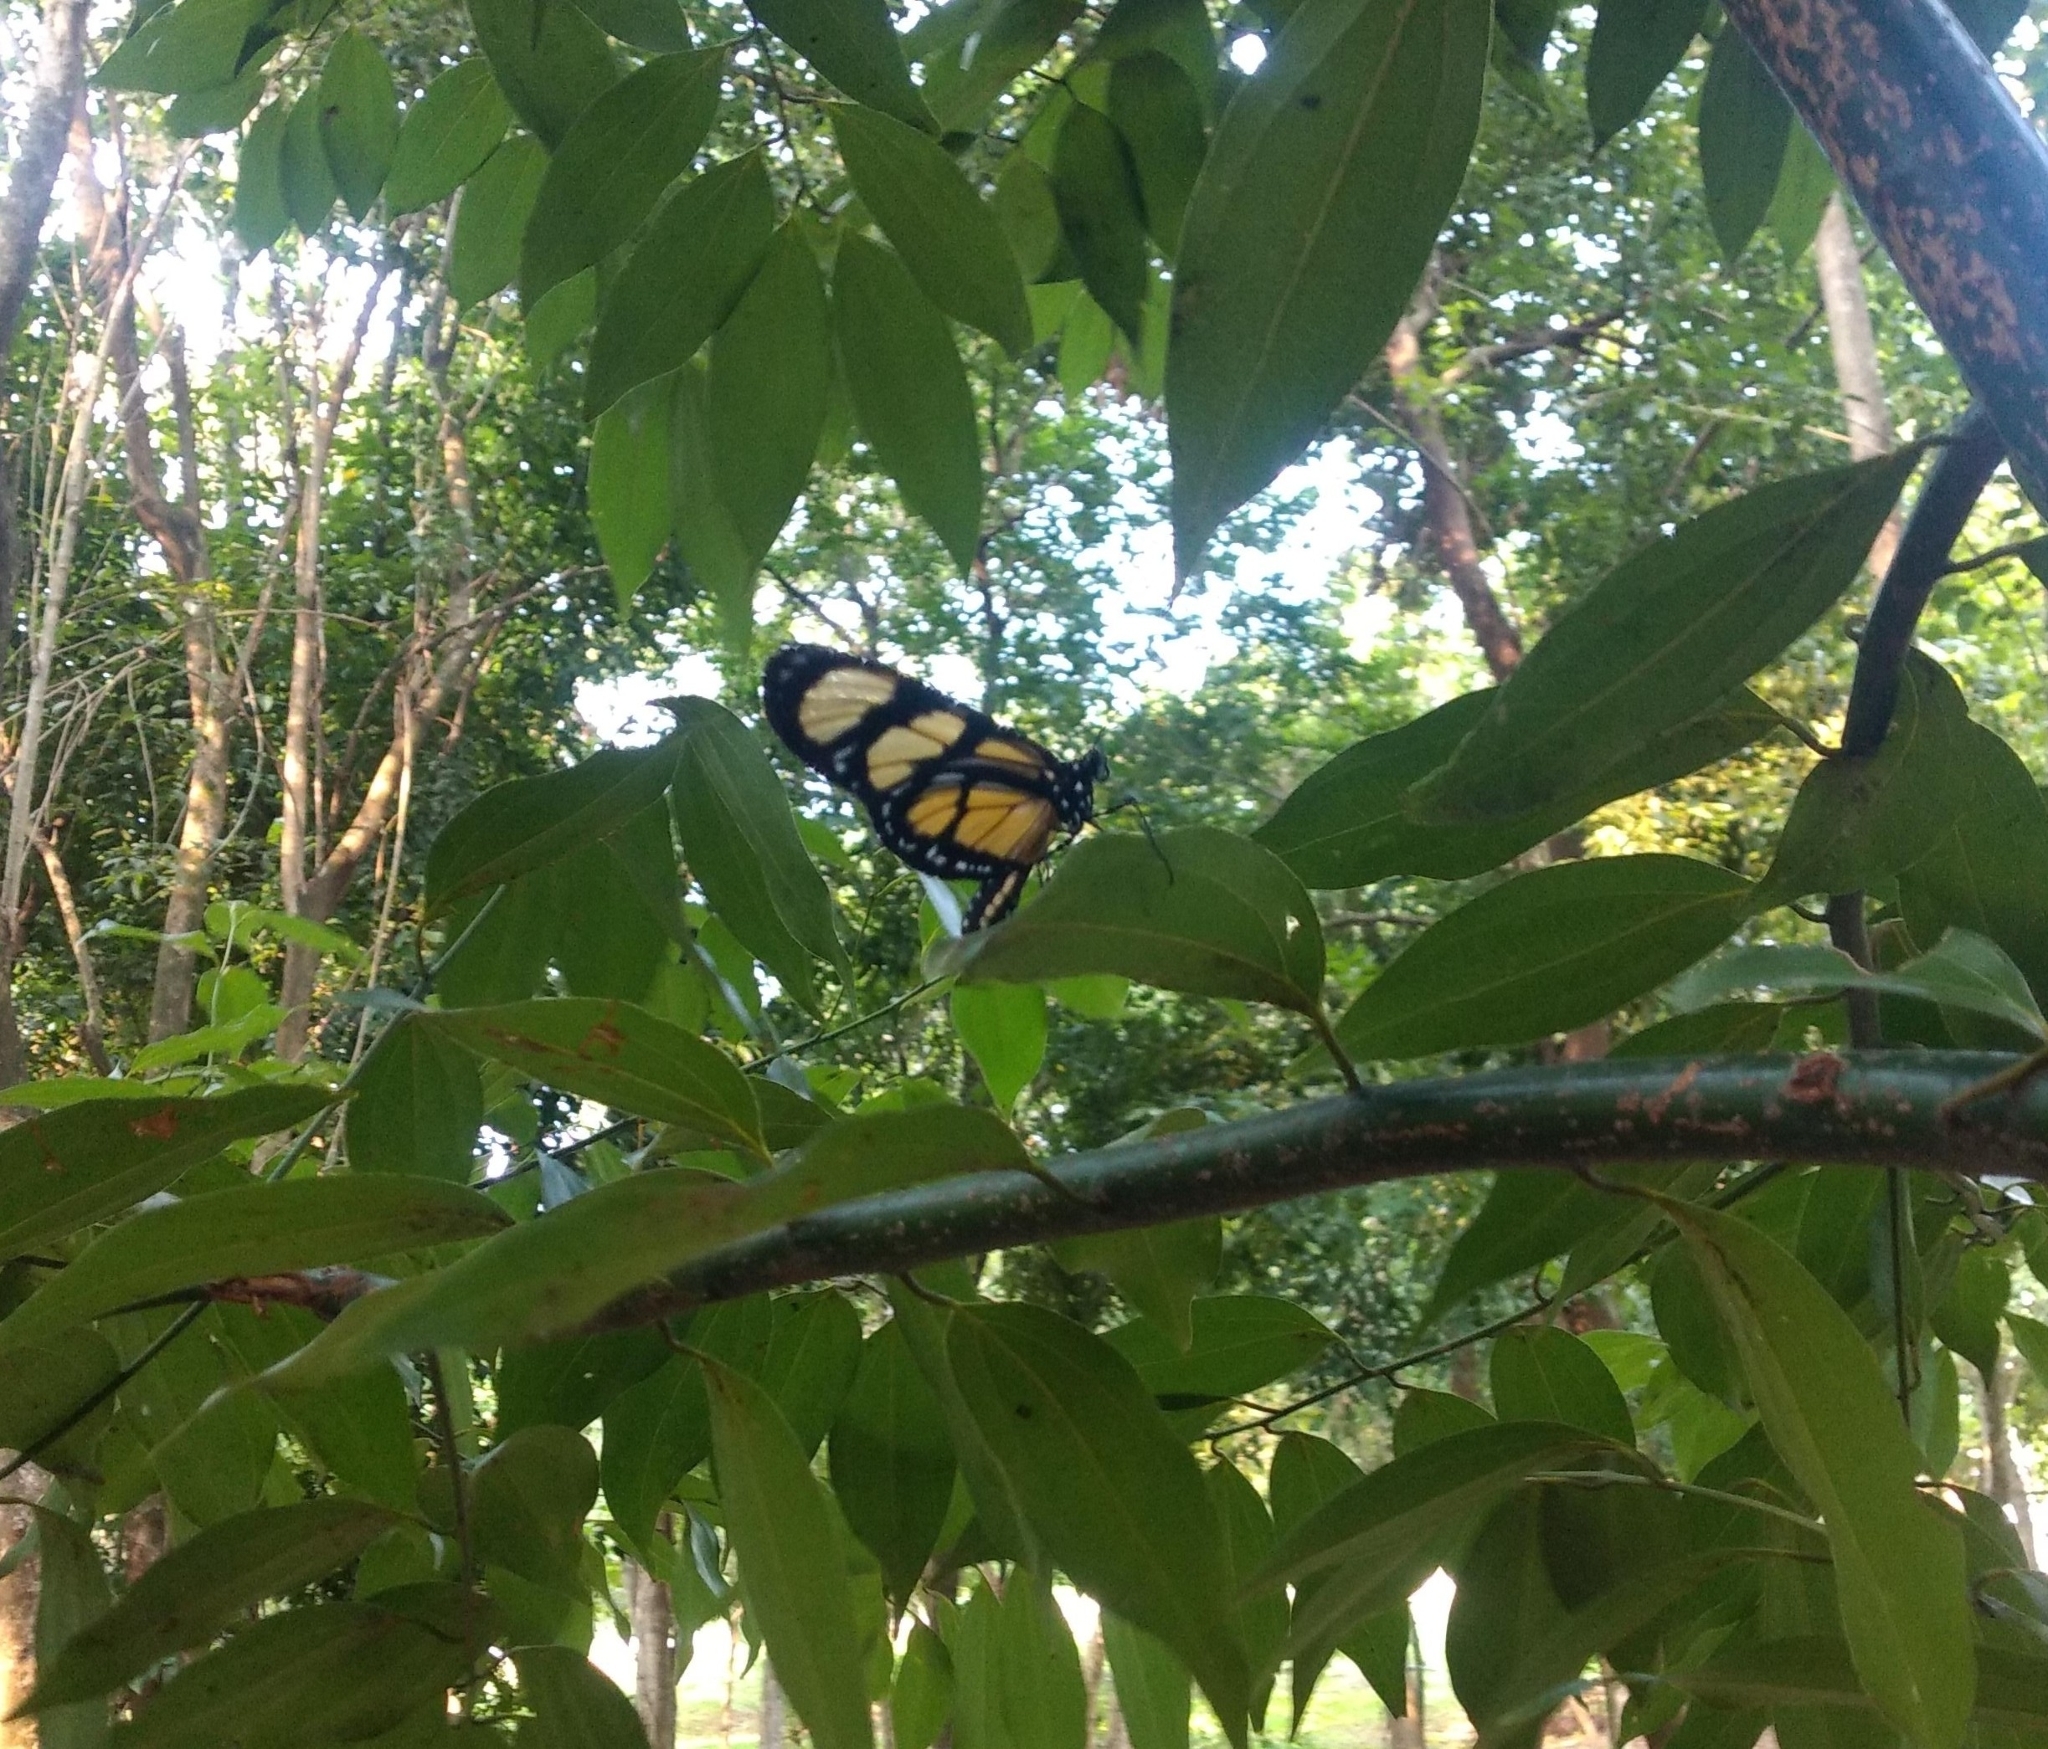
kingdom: Animalia
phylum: Arthropoda
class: Insecta
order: Lepidoptera
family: Nymphalidae
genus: Methona
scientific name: Methona themisto
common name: Themisto amberwing
